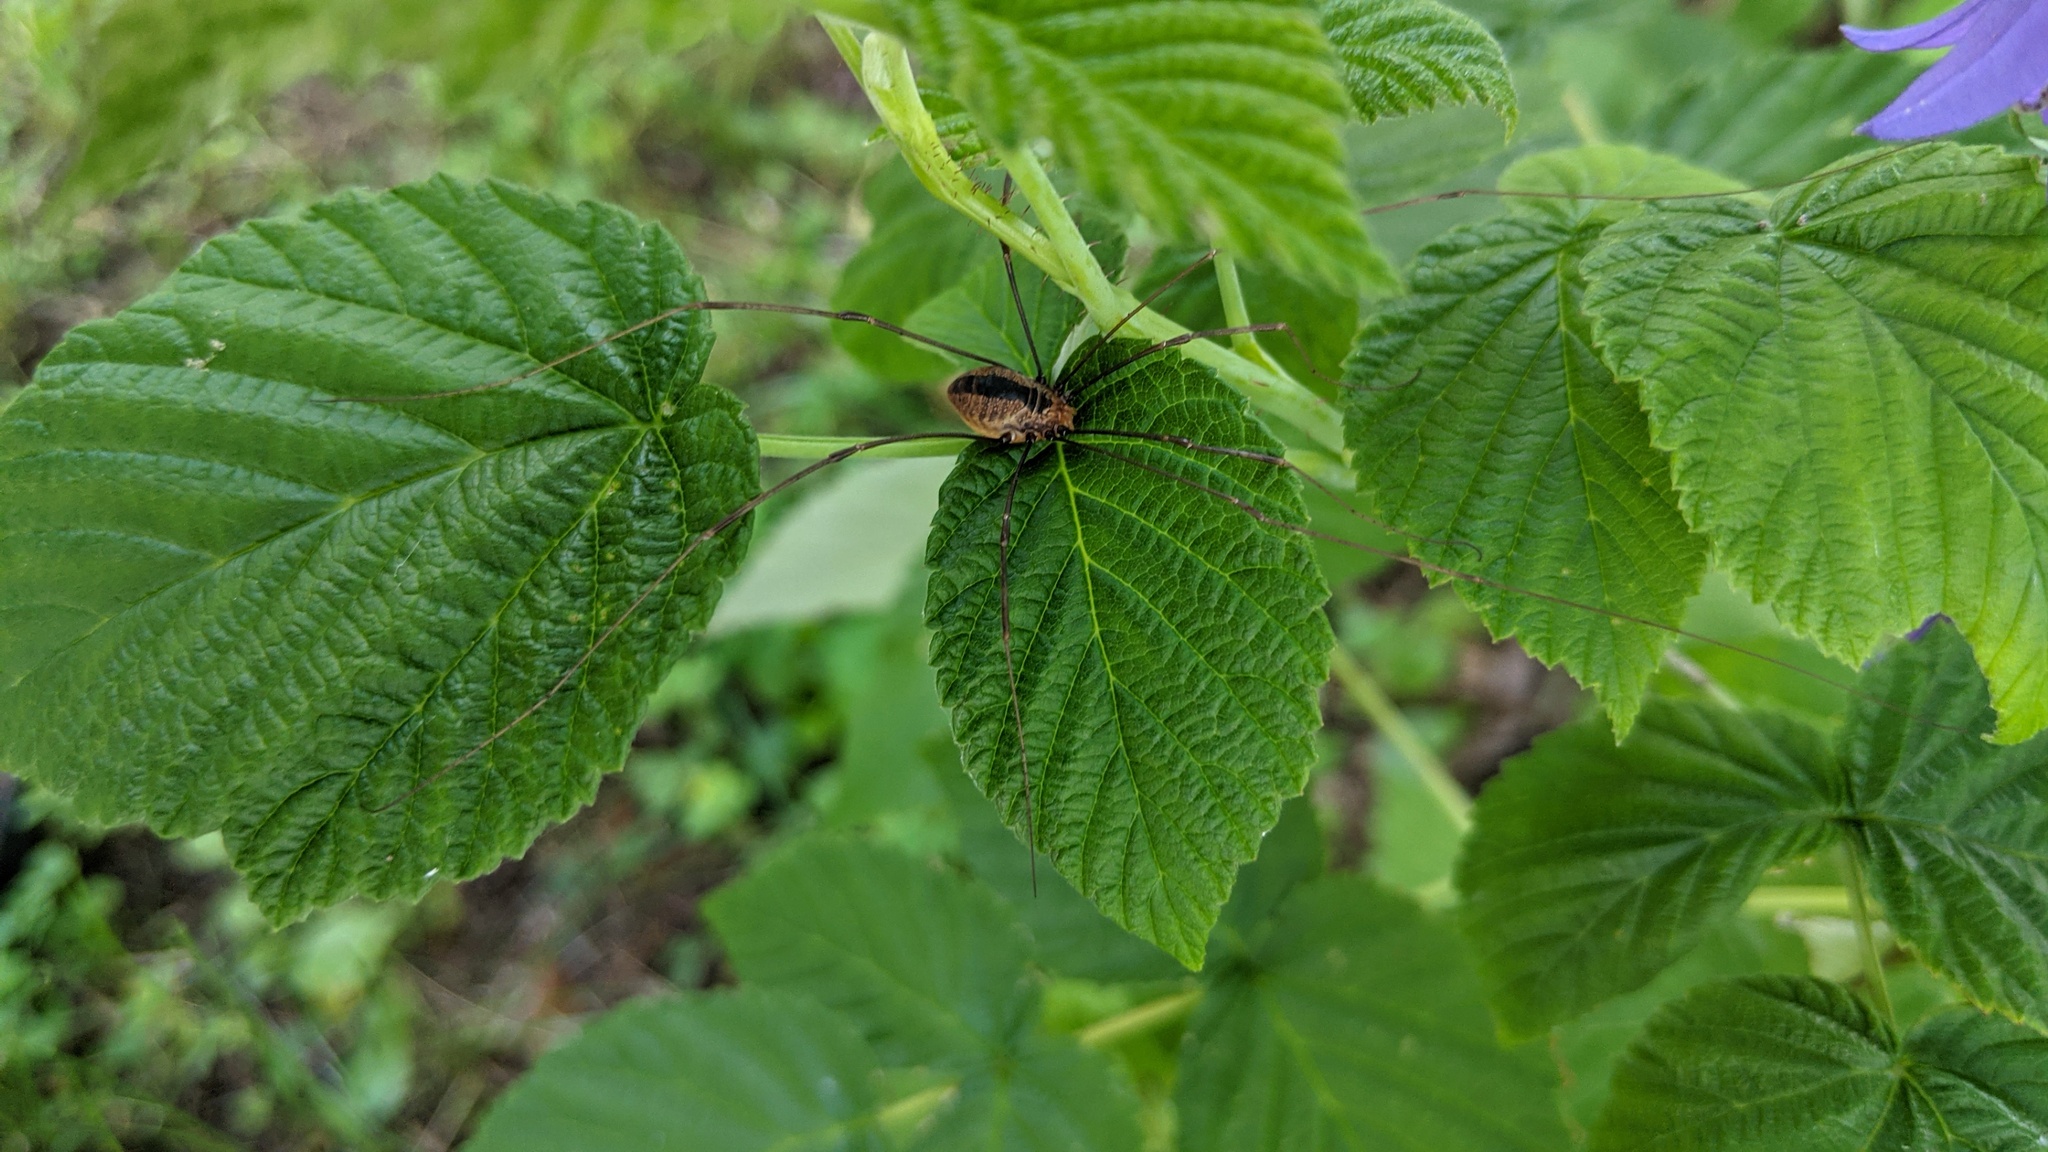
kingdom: Animalia
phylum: Arthropoda
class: Arachnida
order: Opiliones
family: Sclerosomatidae
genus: Leiobunum
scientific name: Leiobunum vittatum
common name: Eastern harvestman
